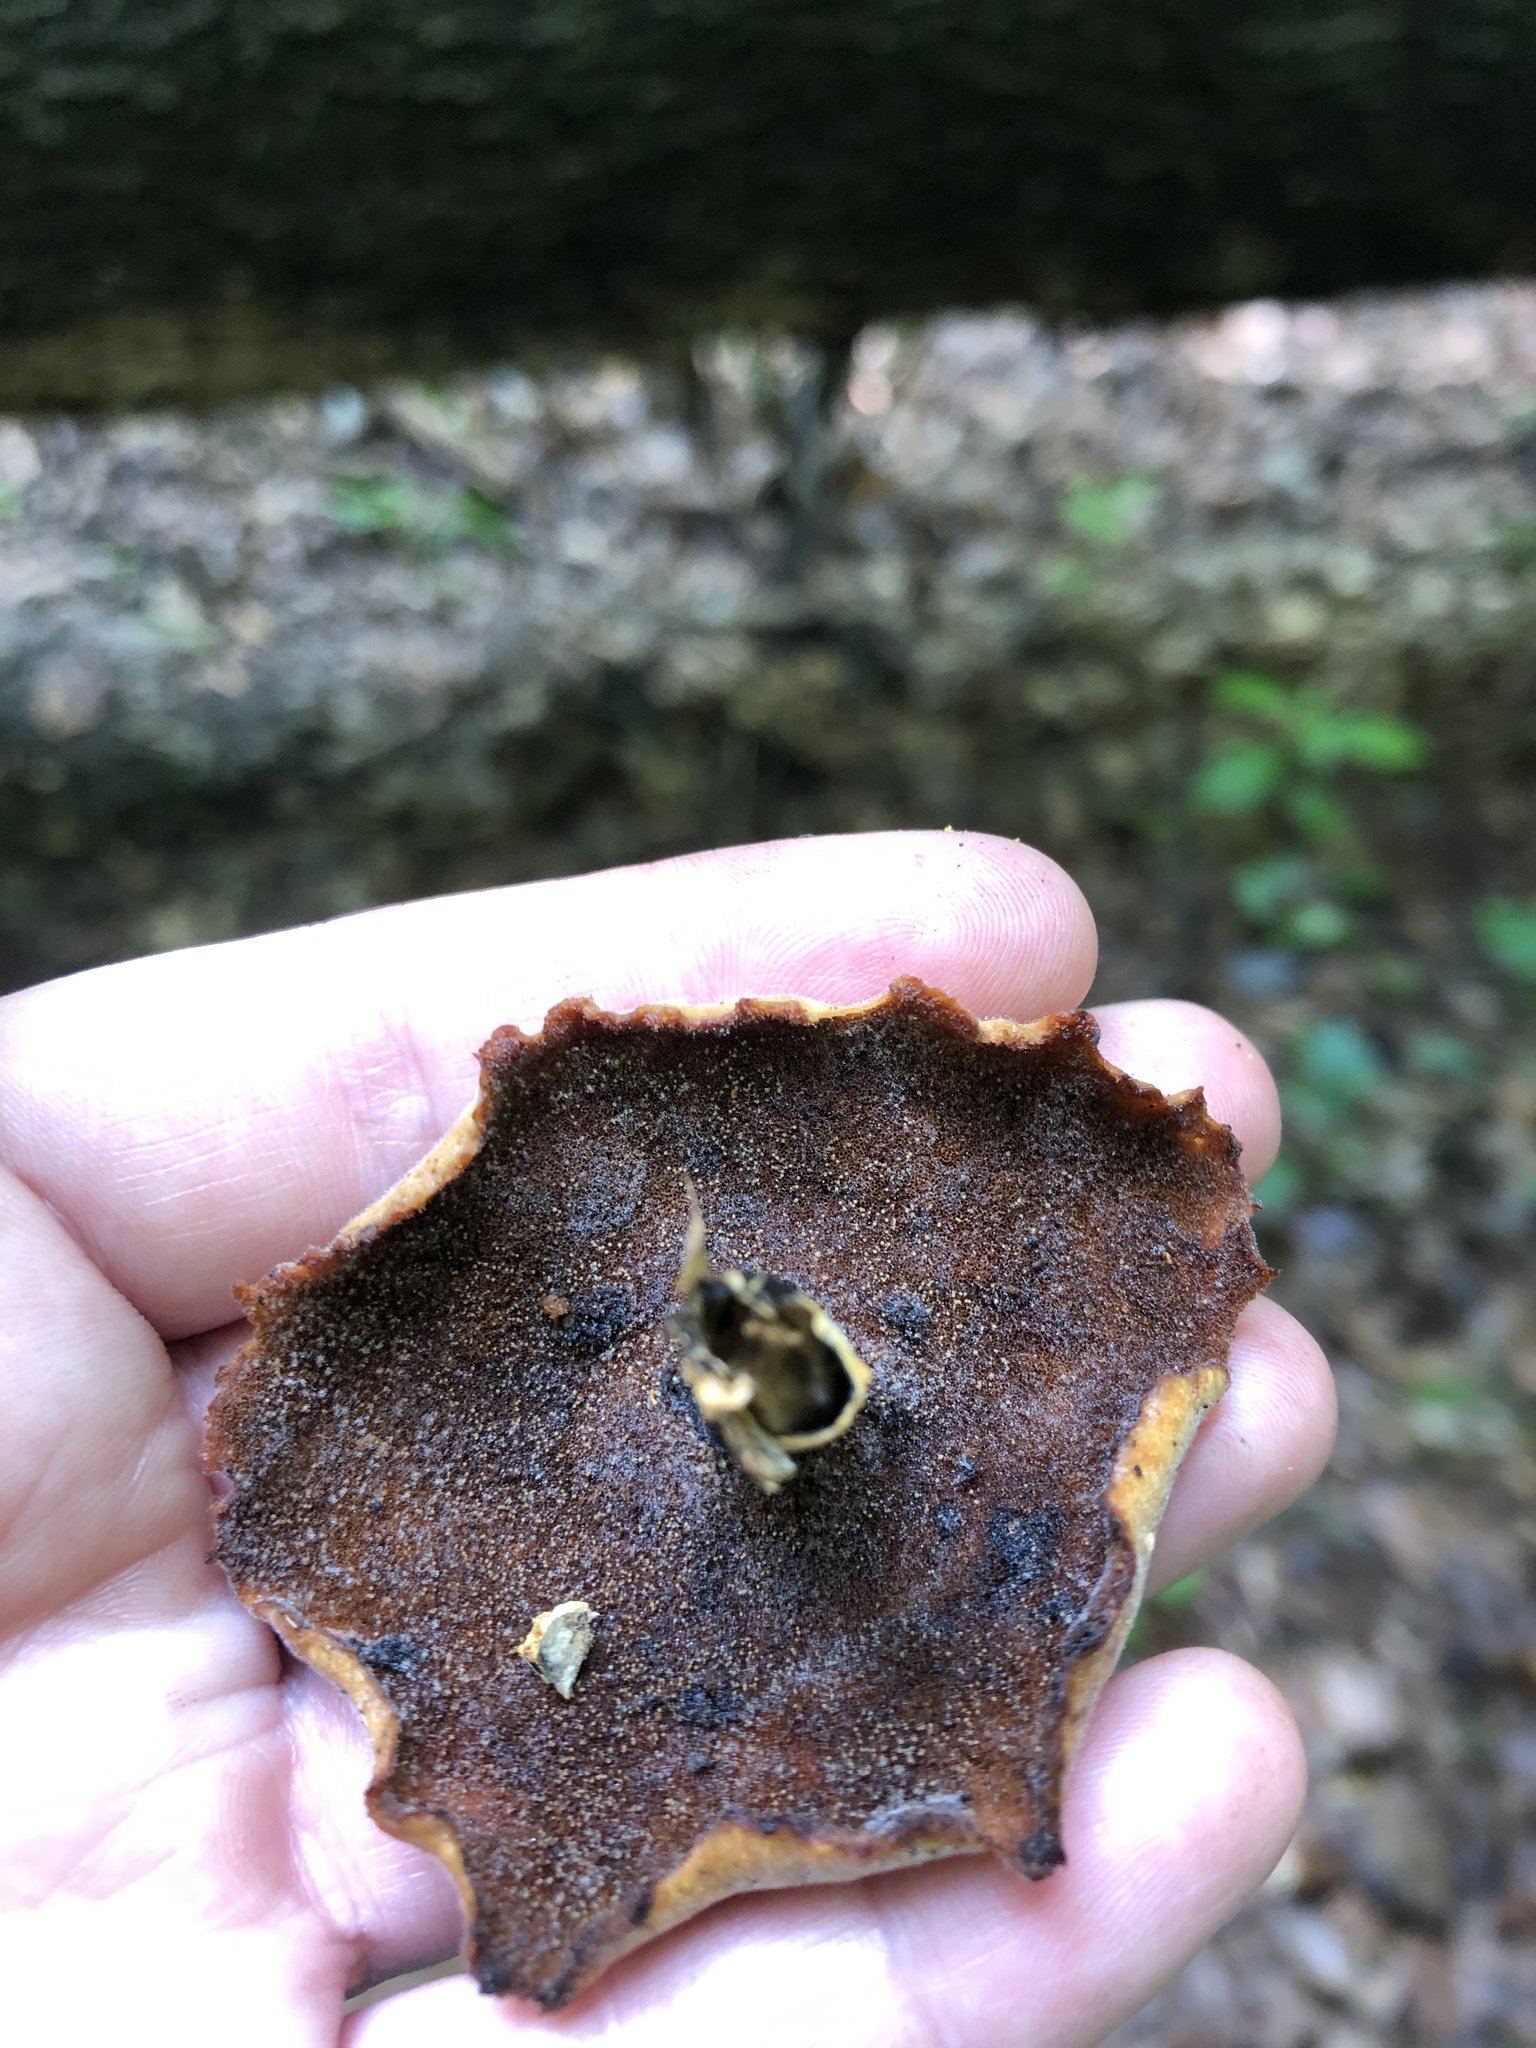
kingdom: Fungi
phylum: Basidiomycota
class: Agaricomycetes
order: Polyporales
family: Polyporaceae
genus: Cerioporus
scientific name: Cerioporus leptocephalus
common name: Blackfoot polypore
